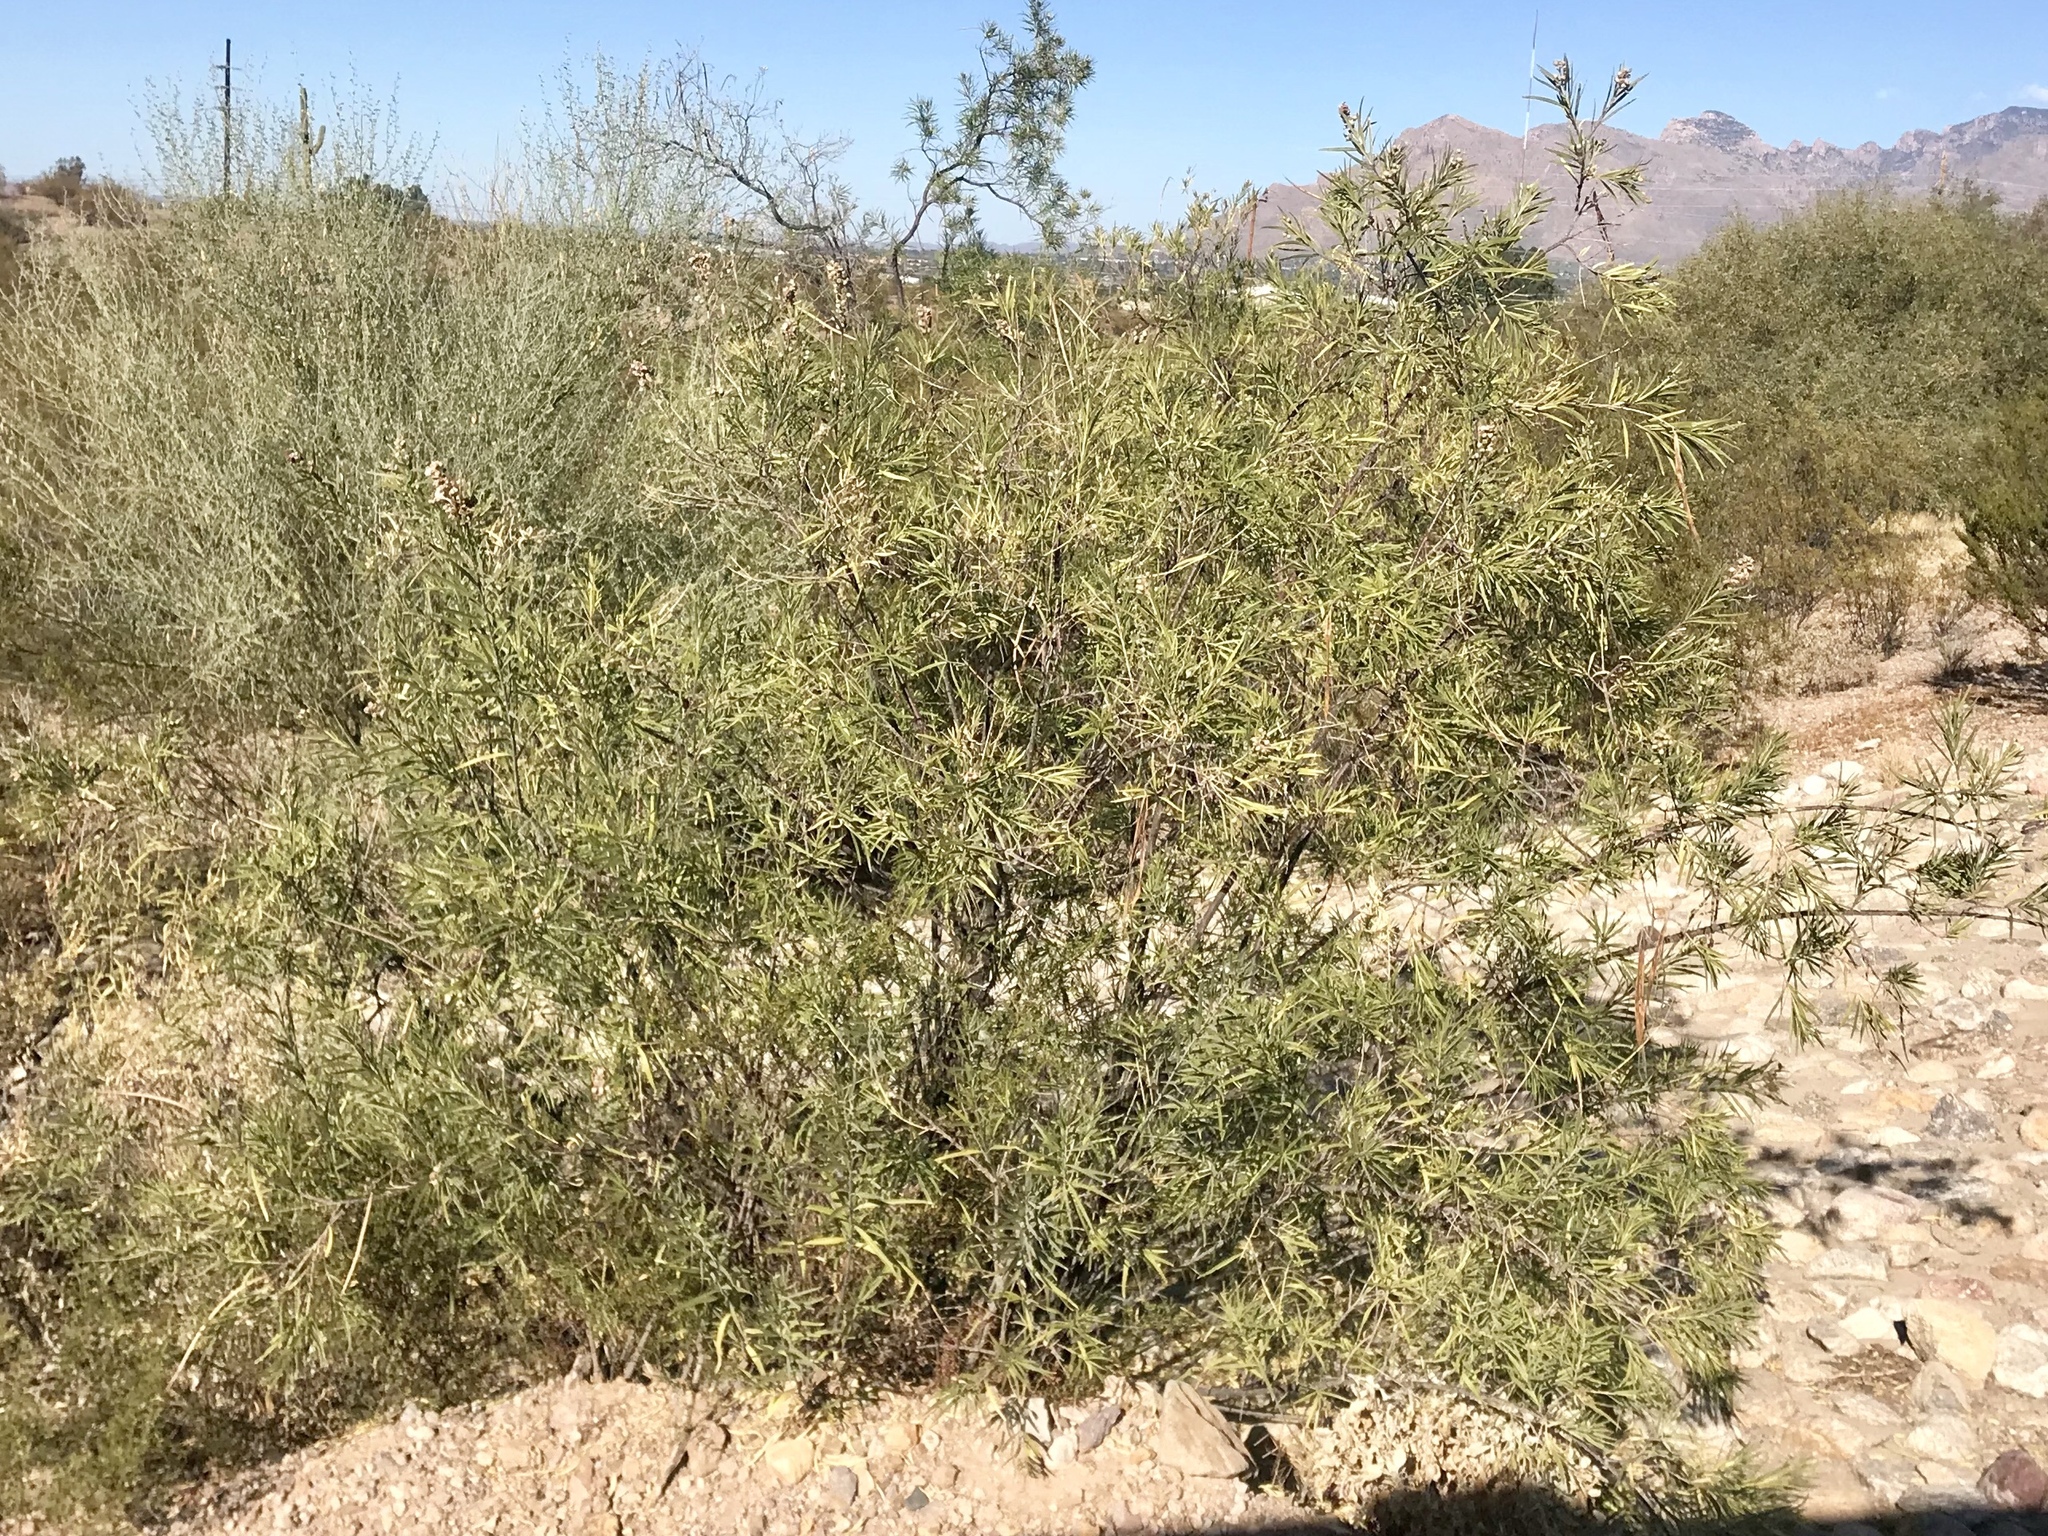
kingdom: Plantae
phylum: Tracheophyta
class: Magnoliopsida
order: Lamiales
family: Bignoniaceae
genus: Chilopsis
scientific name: Chilopsis linearis
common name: Desert-willow
